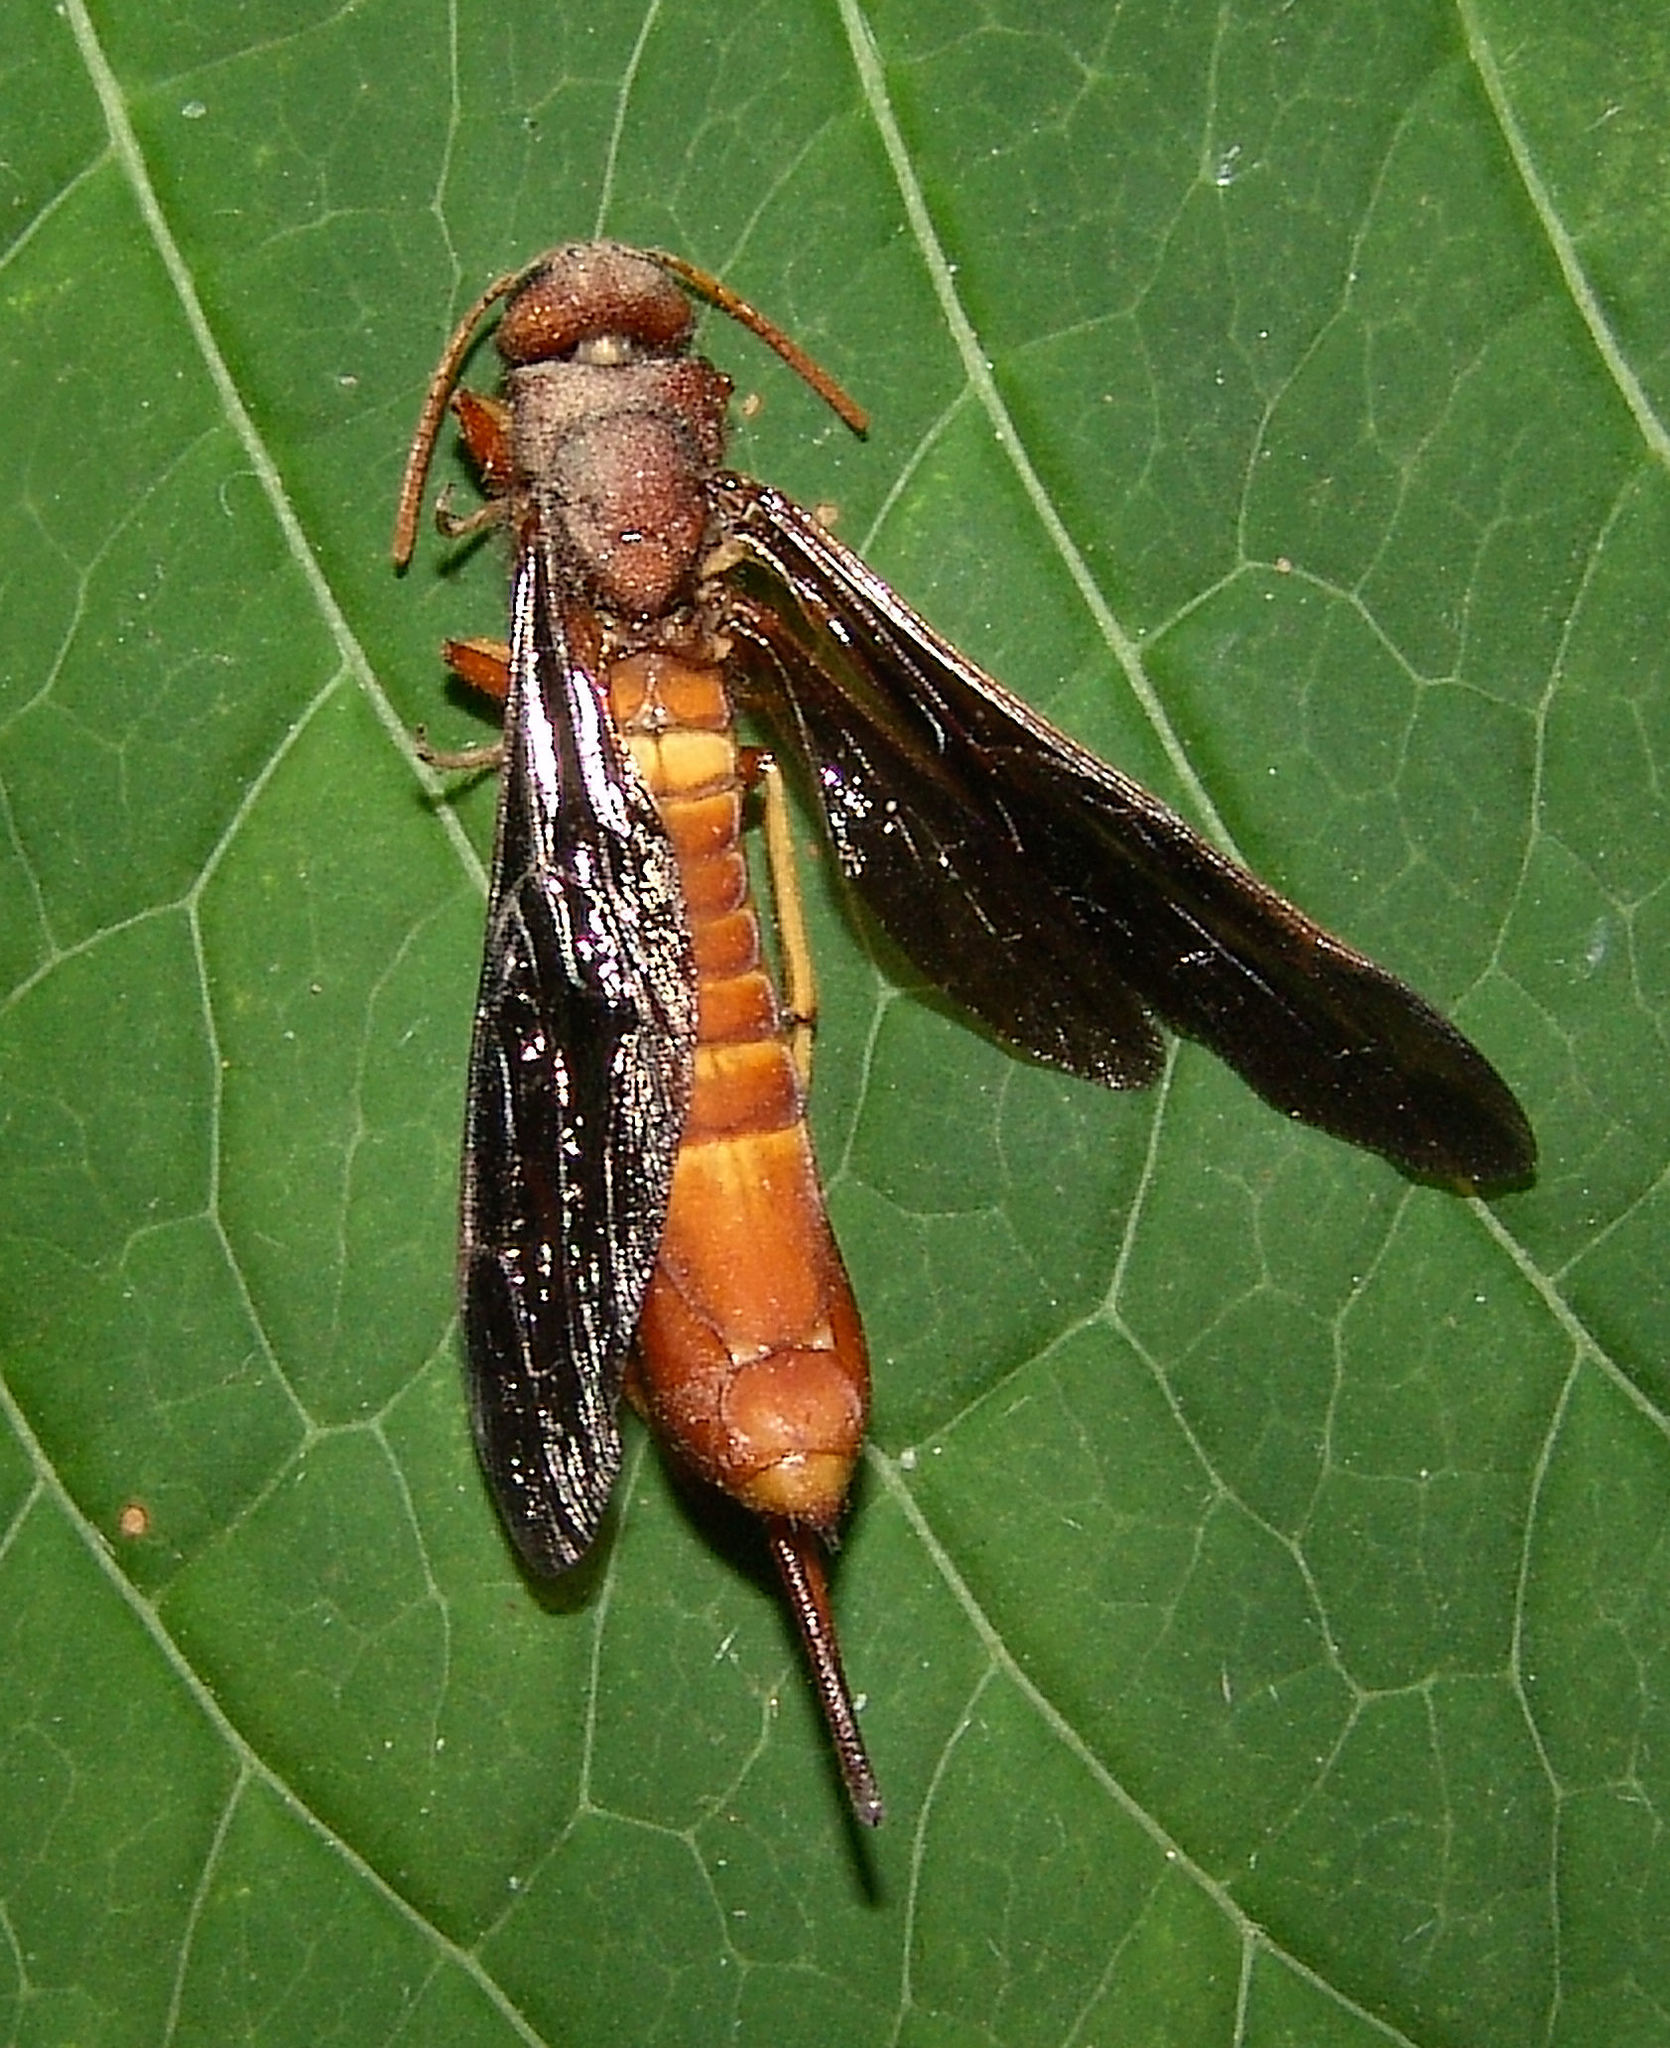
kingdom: Animalia
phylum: Arthropoda
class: Insecta
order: Hymenoptera
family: Siricidae
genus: Tremex
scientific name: Tremex columba
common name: Wasp
